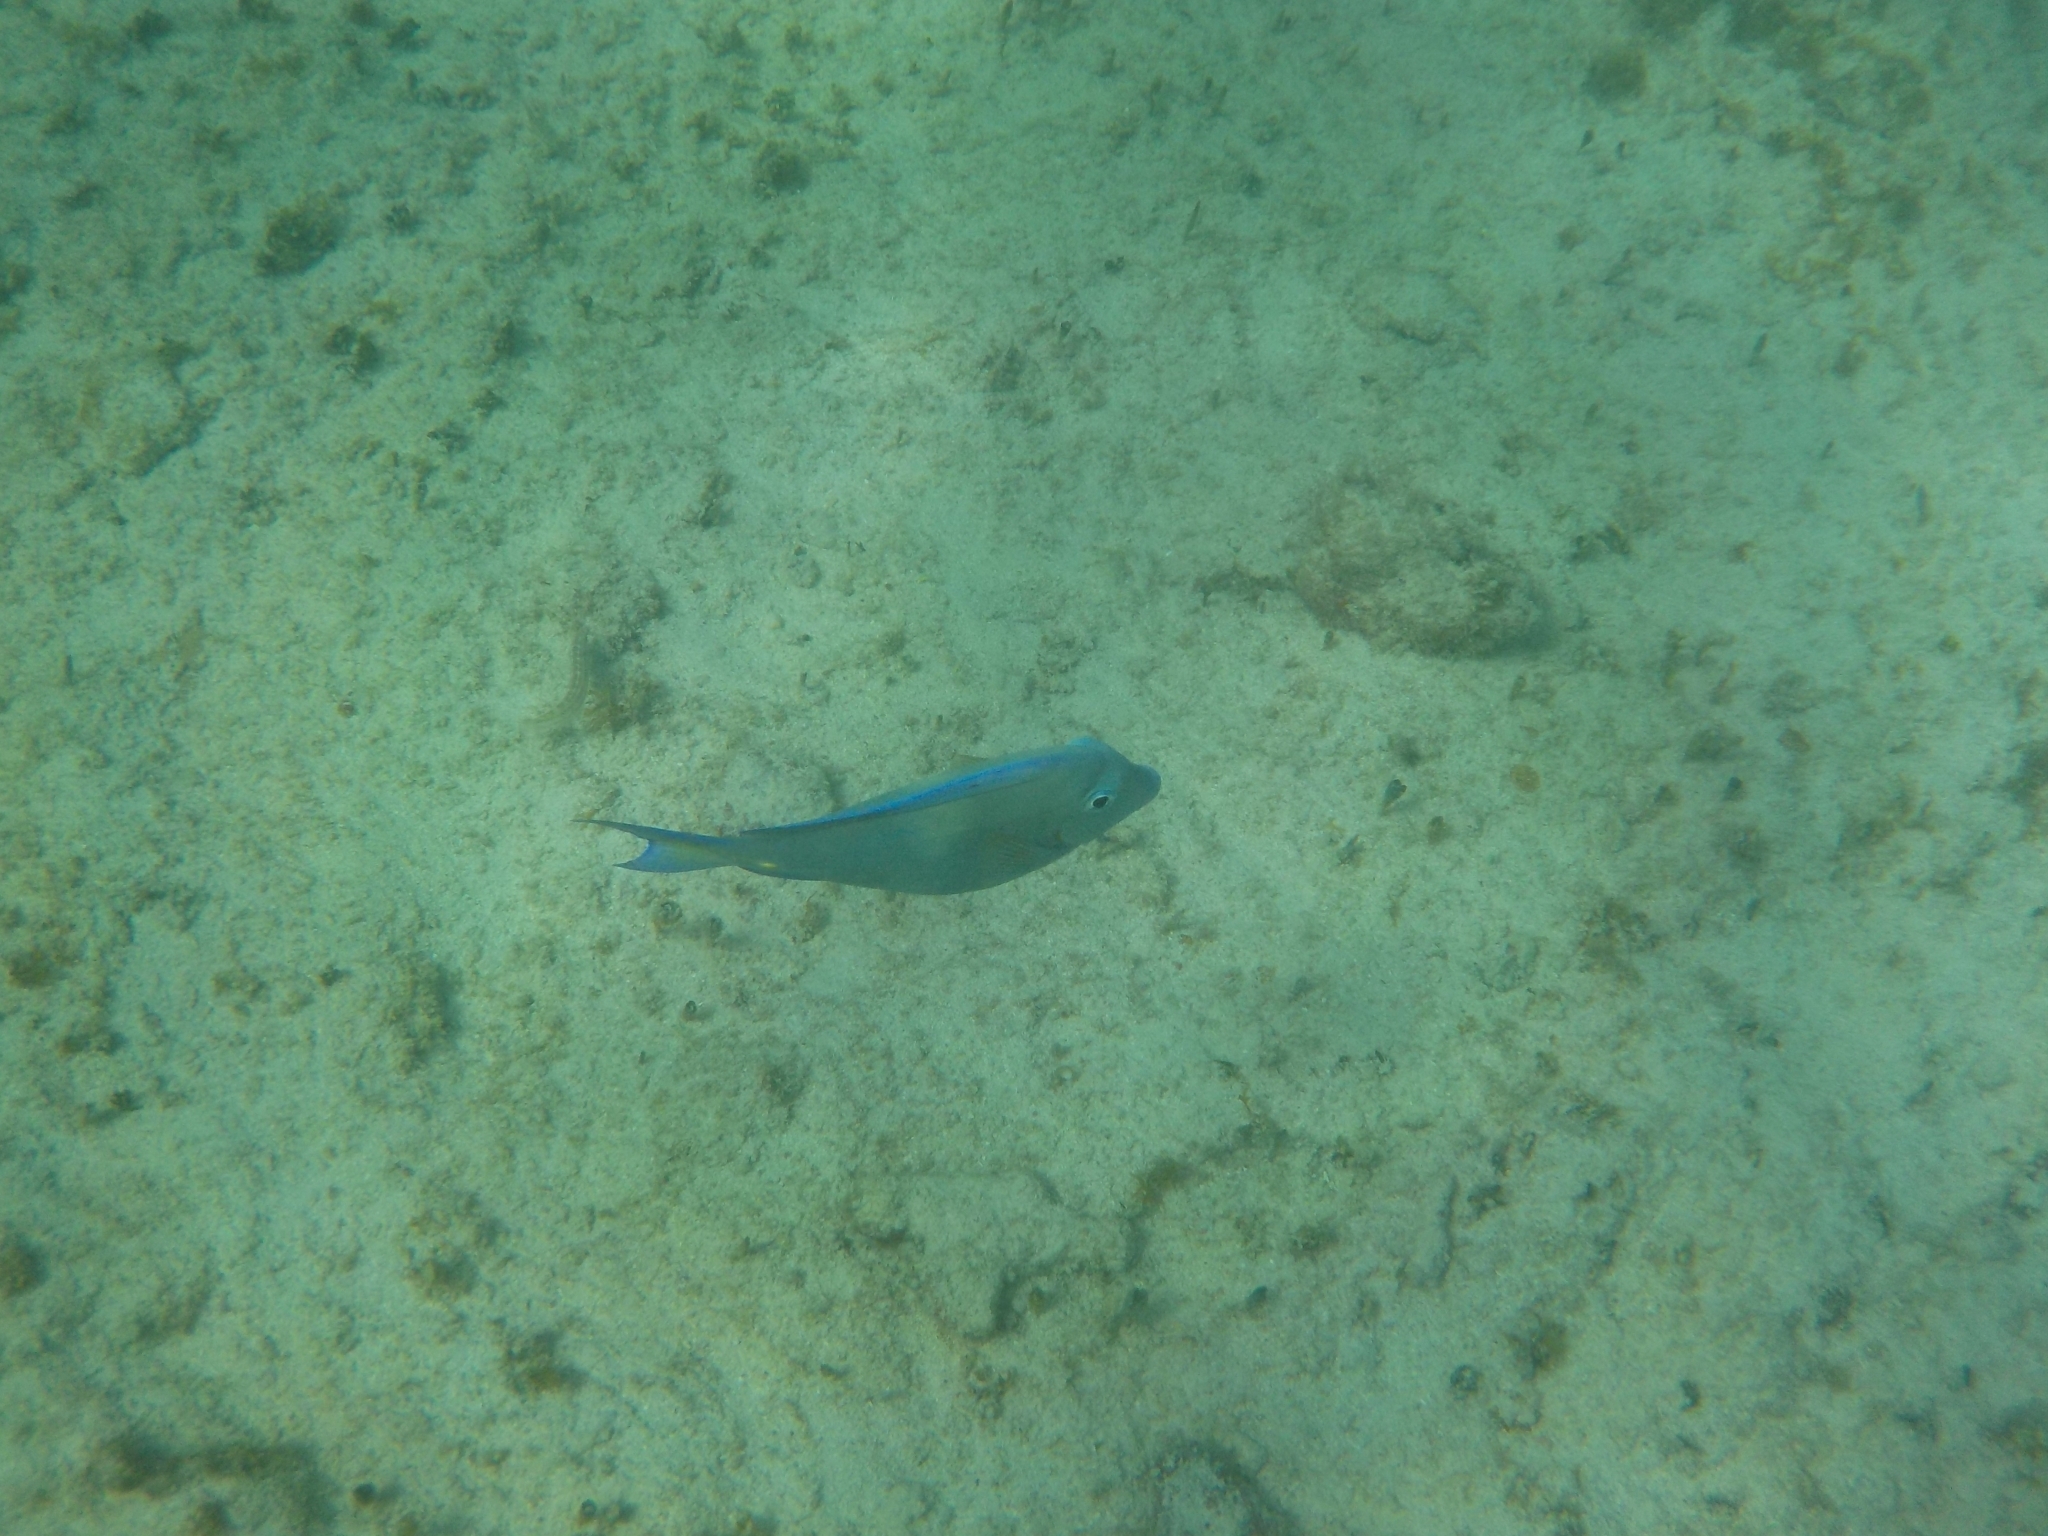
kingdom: Animalia
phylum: Chordata
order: Perciformes
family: Acanthuridae
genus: Acanthurus
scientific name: Acanthurus coeruleus
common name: Blue tang
